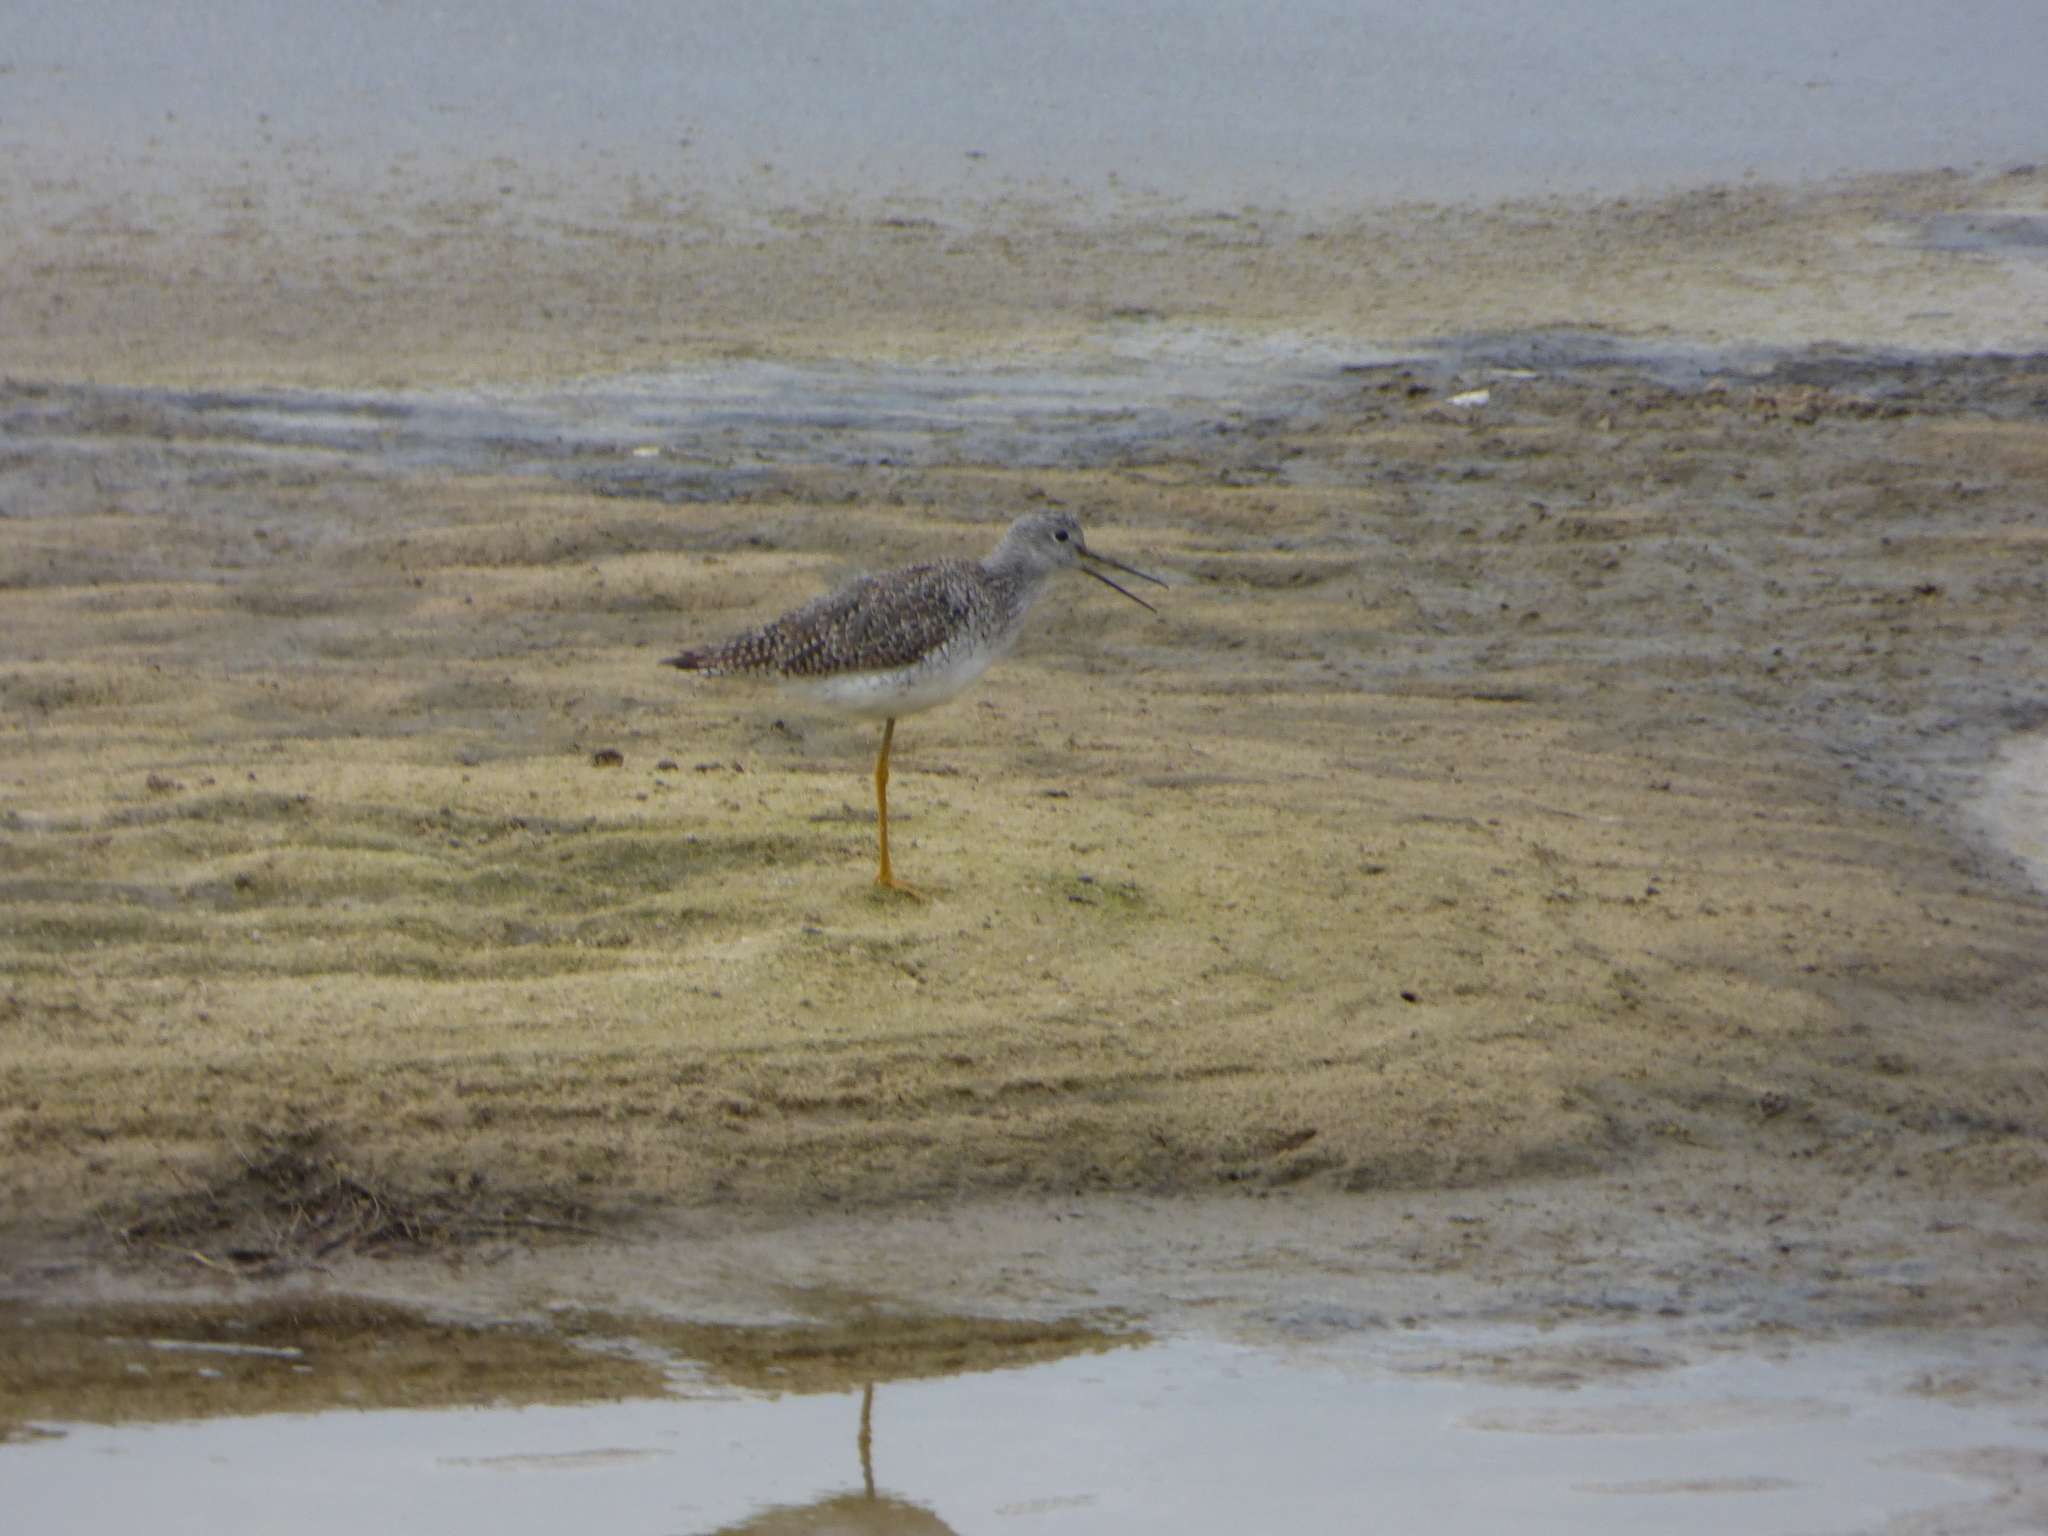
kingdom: Animalia
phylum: Chordata
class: Aves
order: Charadriiformes
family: Scolopacidae
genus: Tringa
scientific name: Tringa flavipes
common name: Lesser yellowlegs
